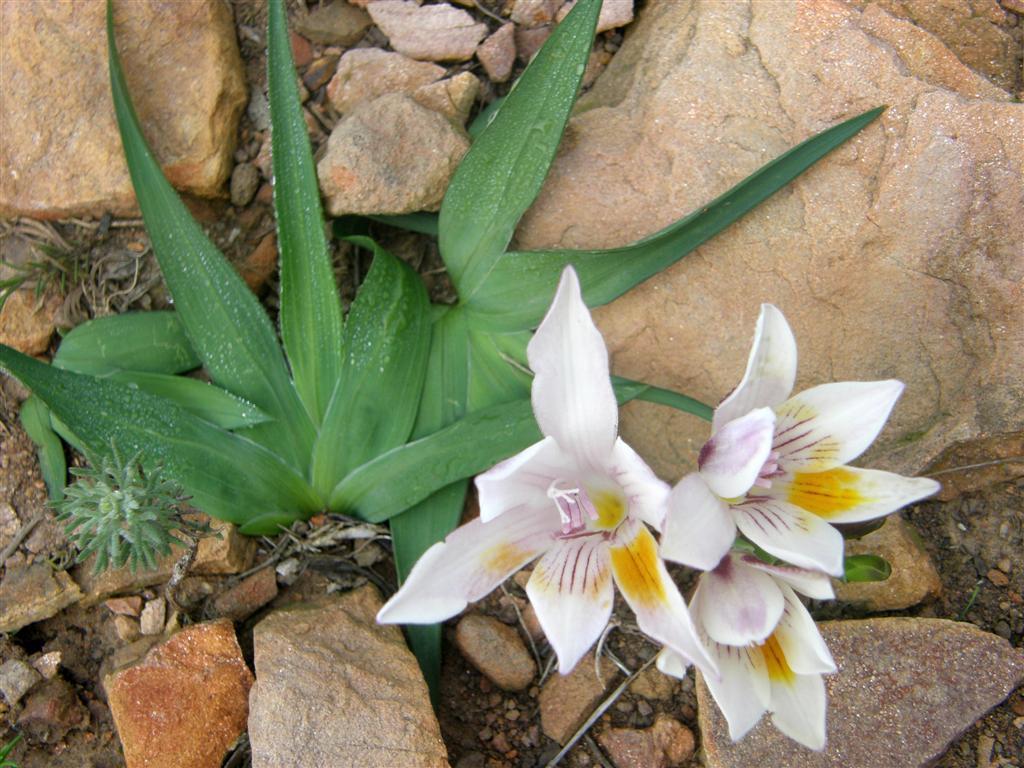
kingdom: Plantae
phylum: Tracheophyta
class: Liliopsida
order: Asparagales
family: Iridaceae
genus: Freesia
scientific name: Freesia caryophyllacea
